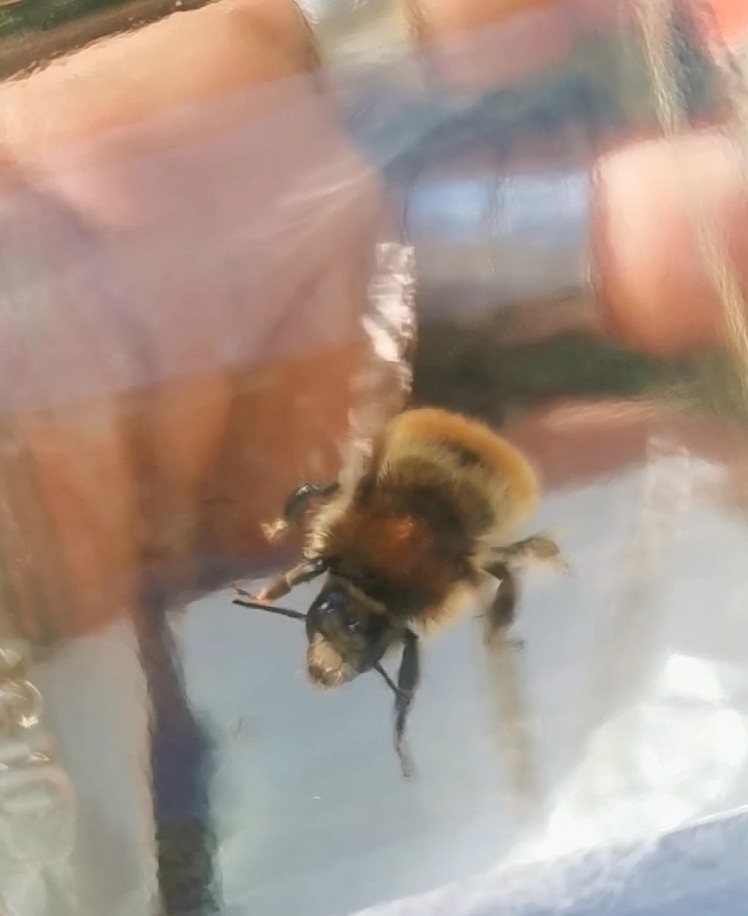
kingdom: Animalia
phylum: Arthropoda
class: Insecta
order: Hymenoptera
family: Apidae
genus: Bombus
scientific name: Bombus humilis
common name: Brown-banded carder-bee
